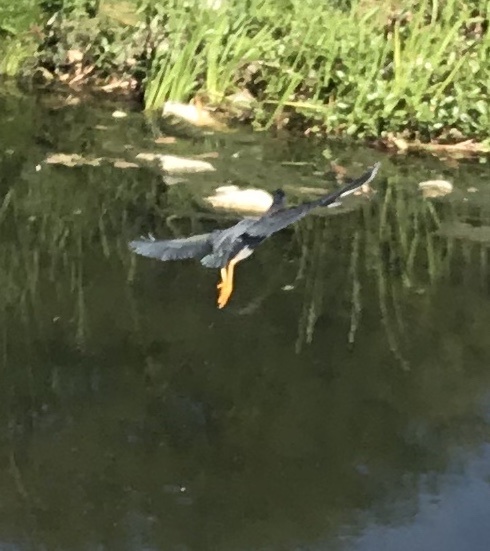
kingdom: Animalia
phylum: Chordata
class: Aves
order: Pelecaniformes
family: Ardeidae
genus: Butorides
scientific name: Butorides virescens
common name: Green heron
